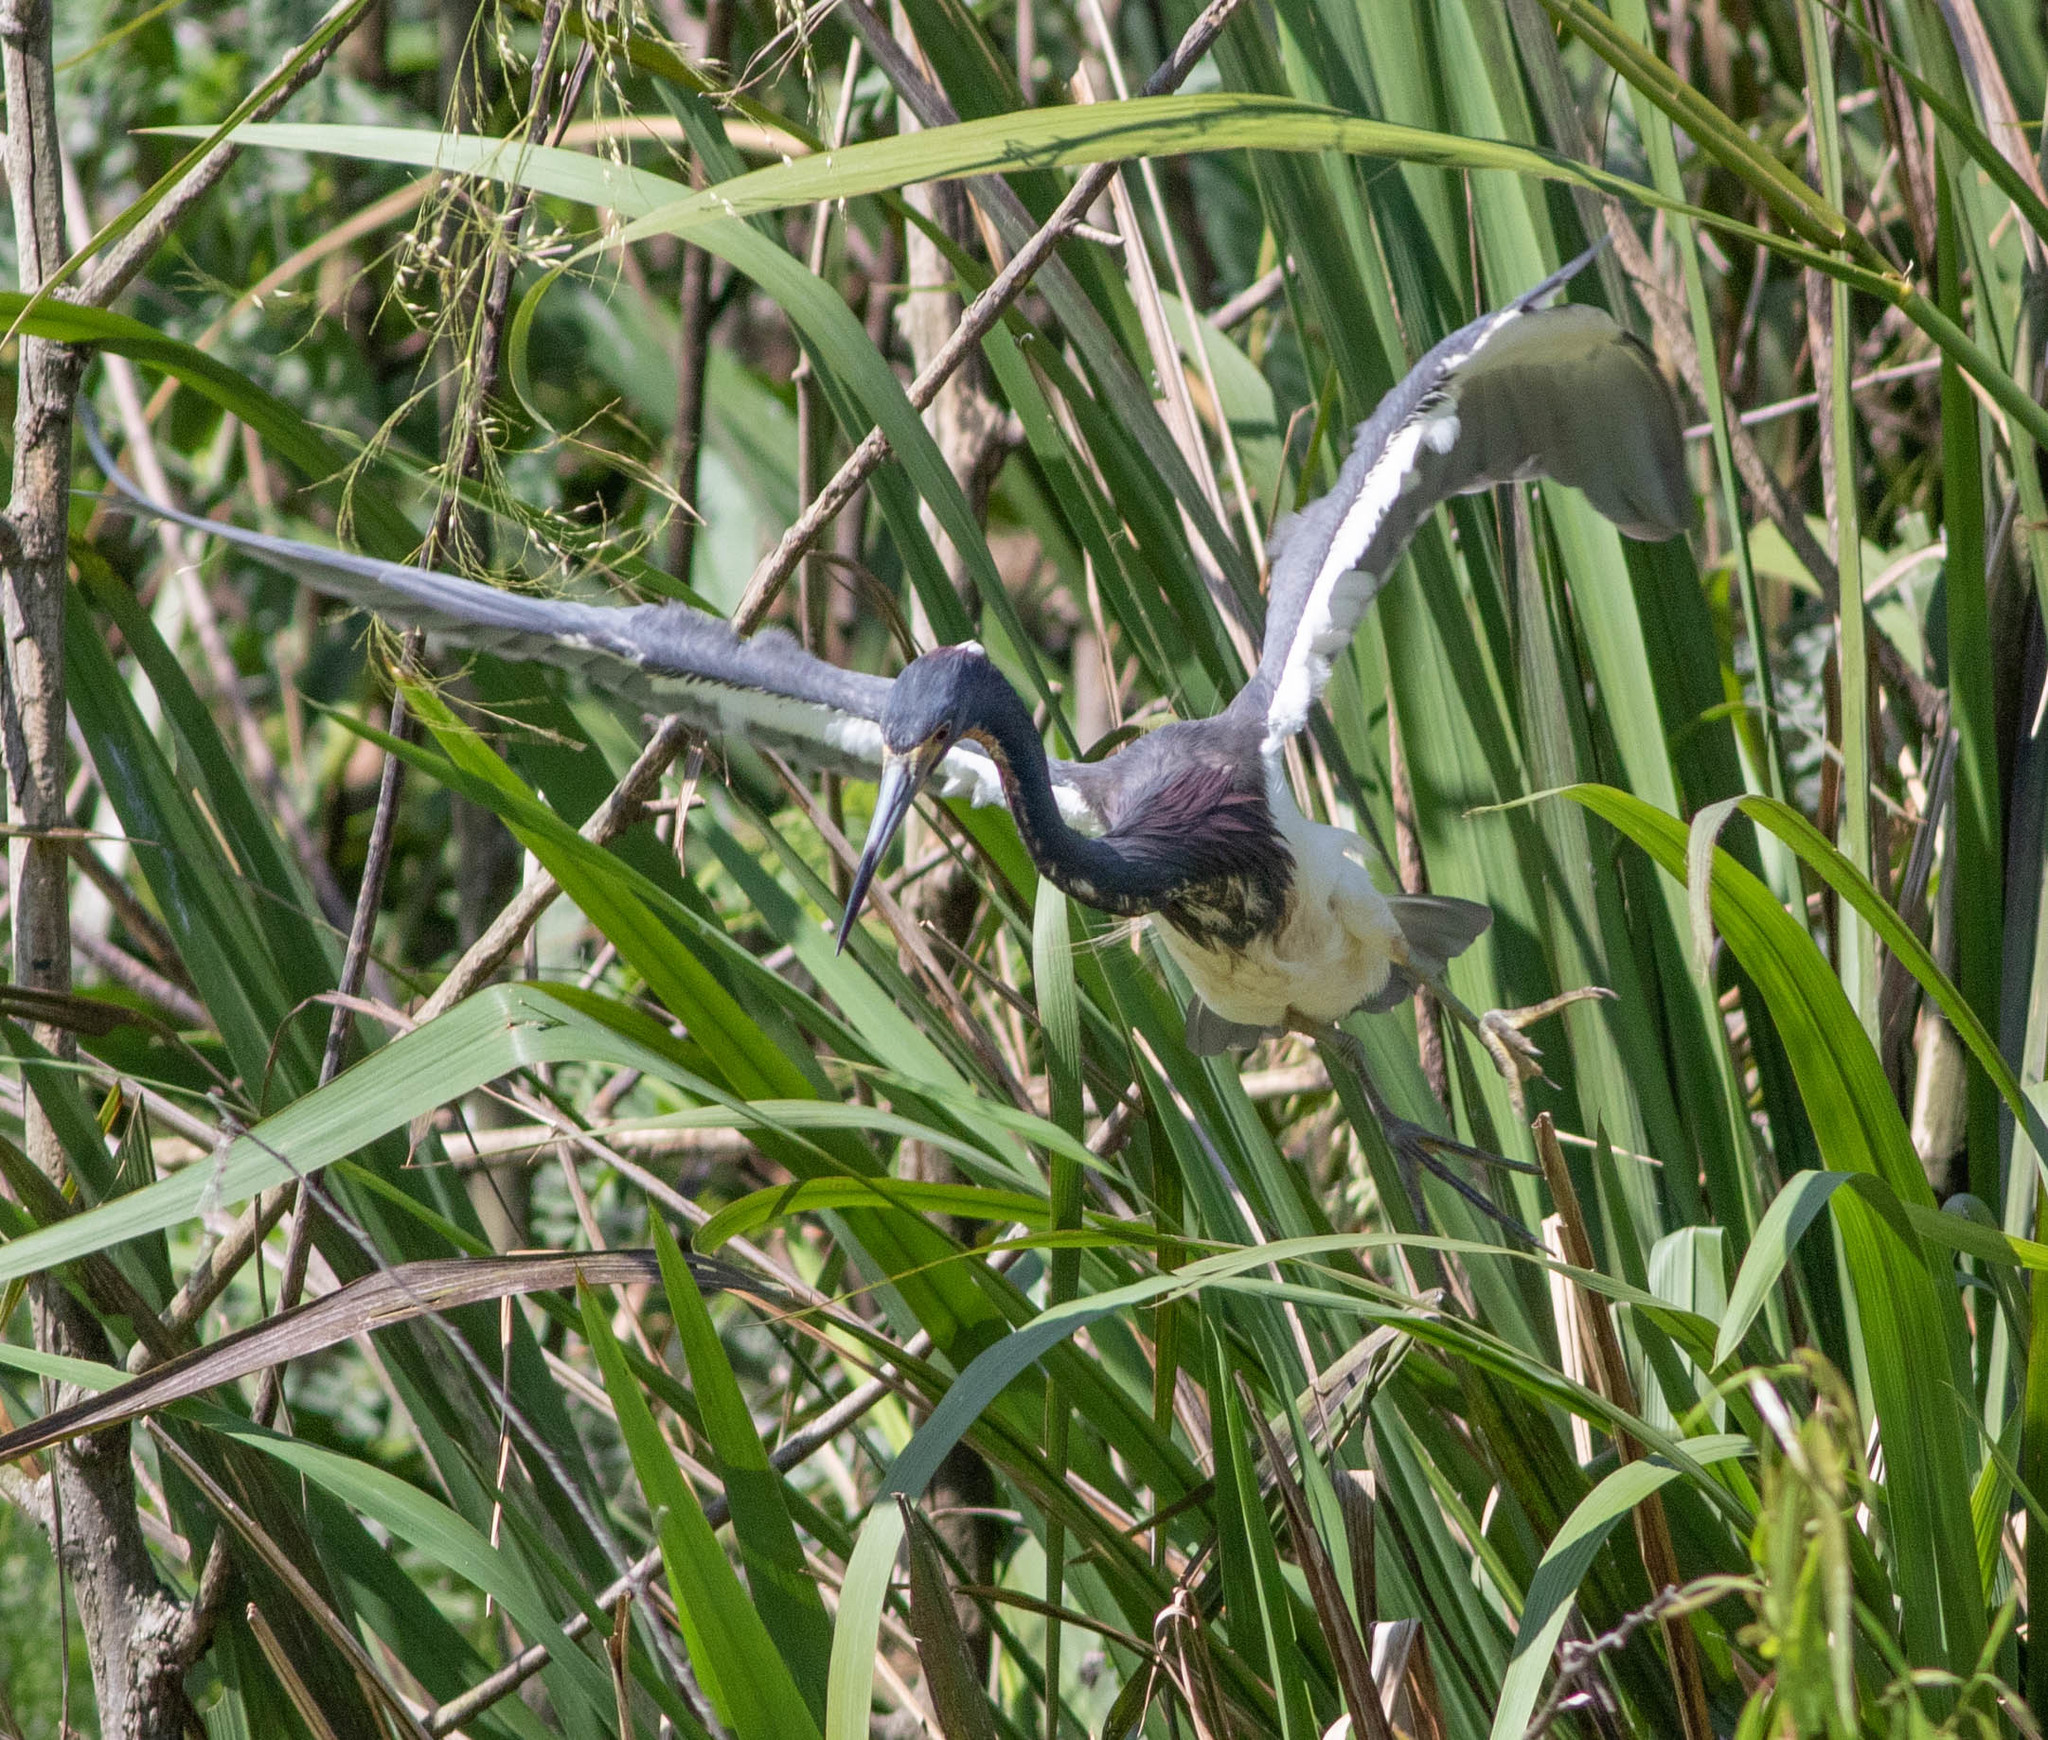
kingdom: Animalia
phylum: Chordata
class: Aves
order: Pelecaniformes
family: Ardeidae
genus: Egretta
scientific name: Egretta tricolor
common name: Tricolored heron
